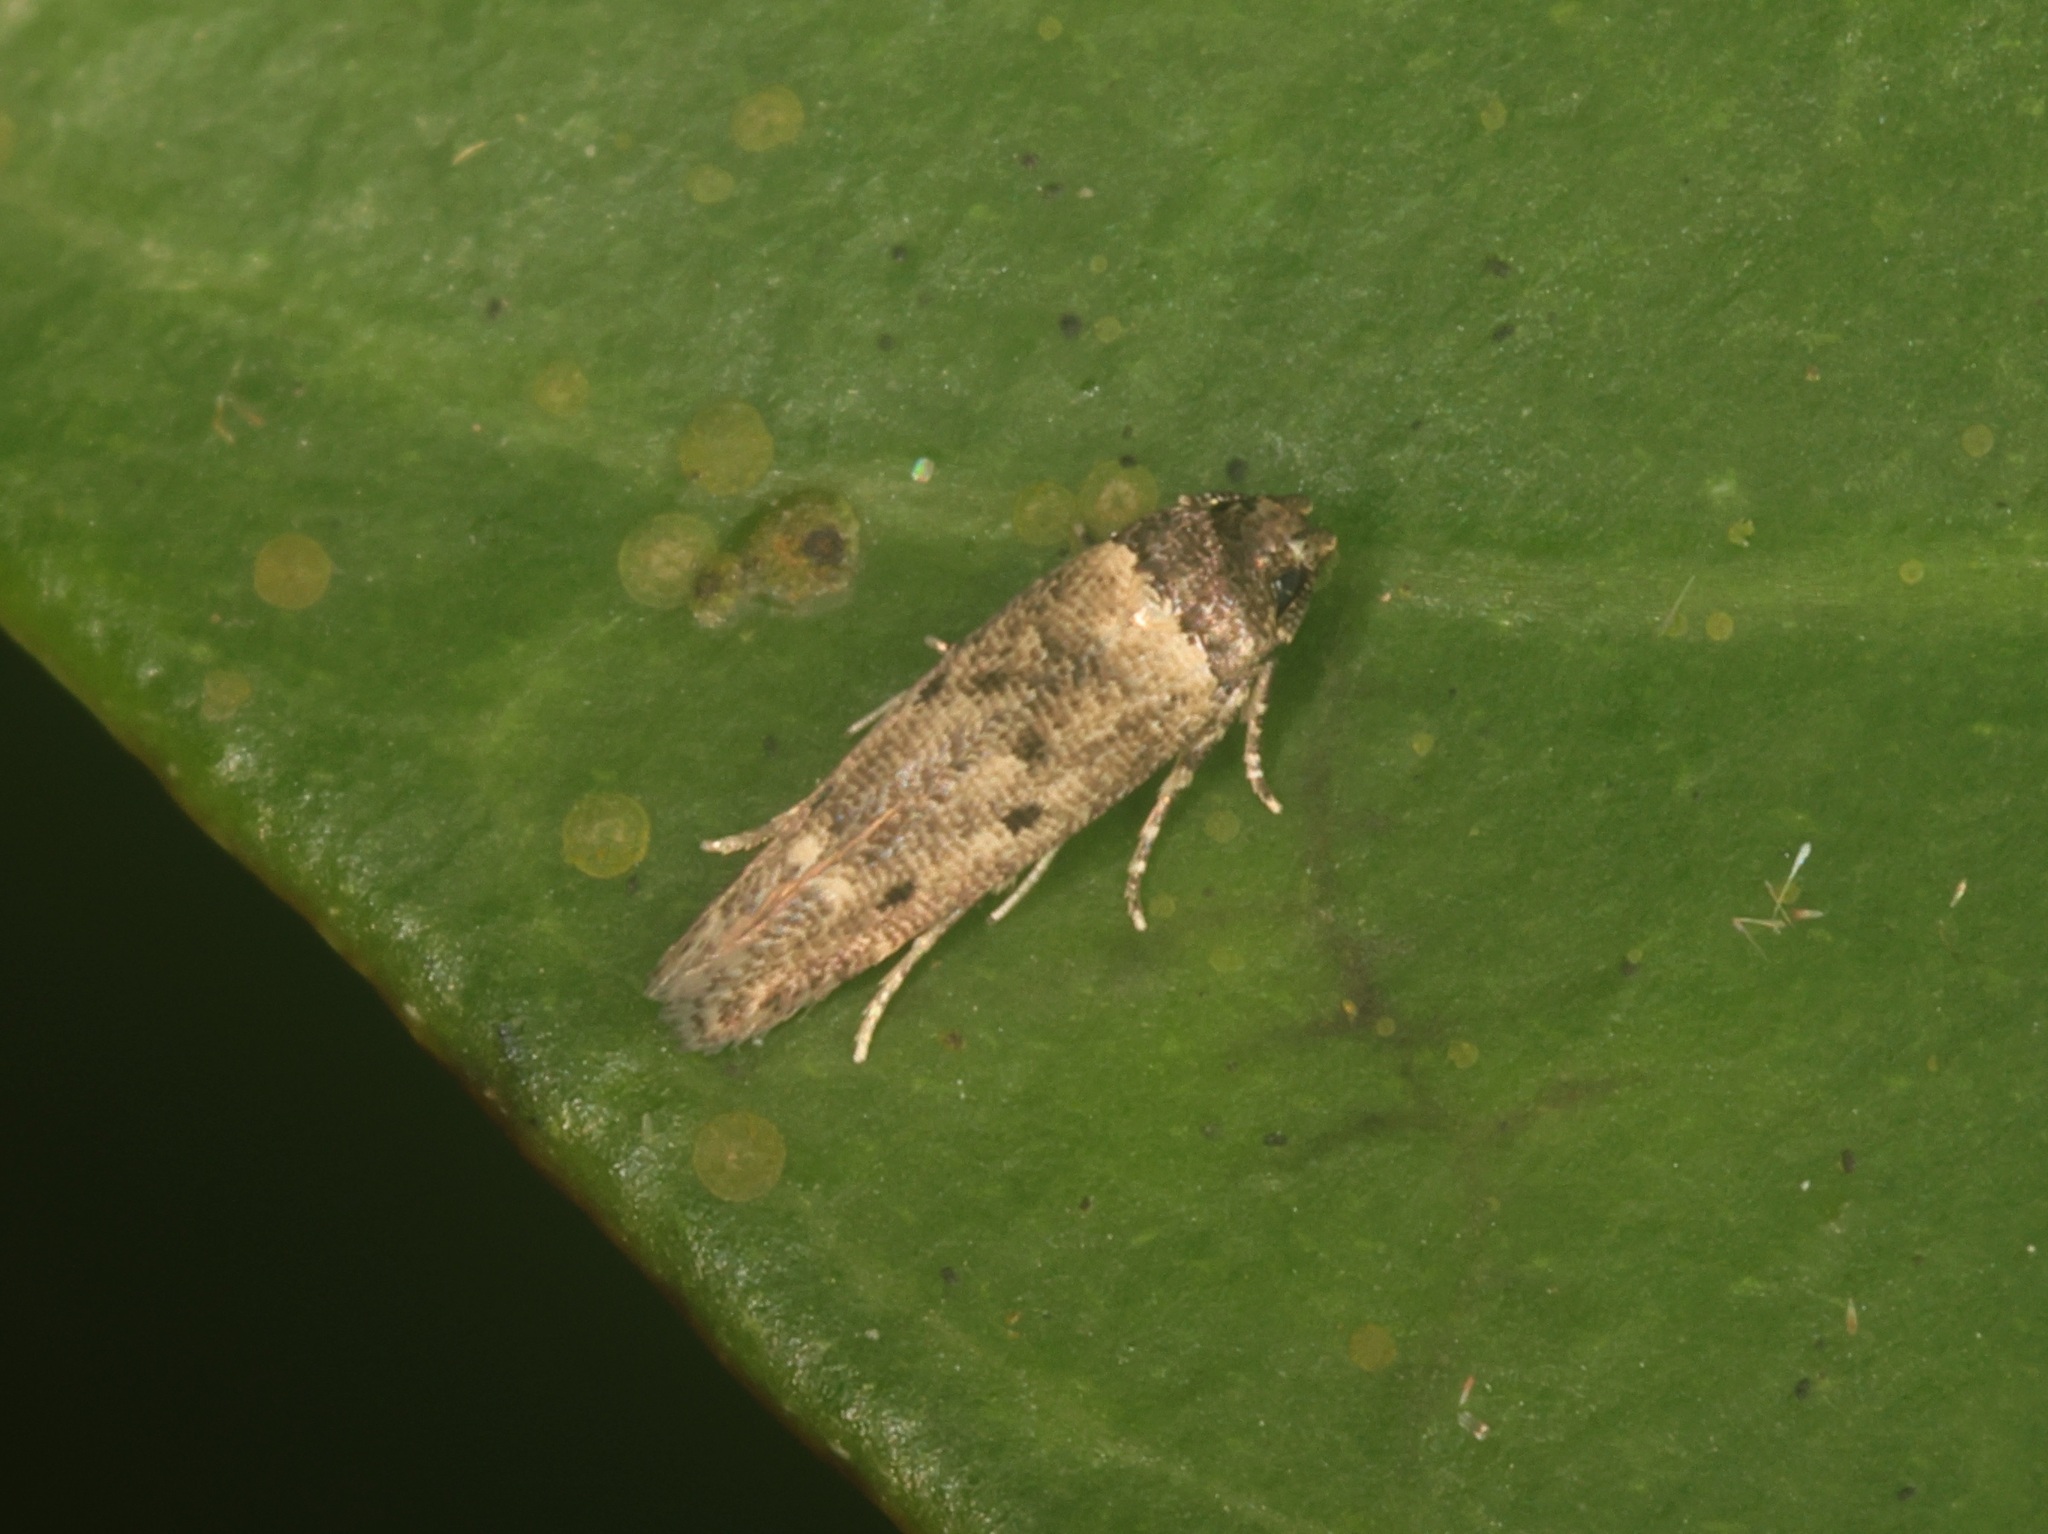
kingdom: Animalia
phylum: Arthropoda
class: Insecta
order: Lepidoptera
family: Cosmopterigidae
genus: Gisilia
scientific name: Gisilia thoracista
